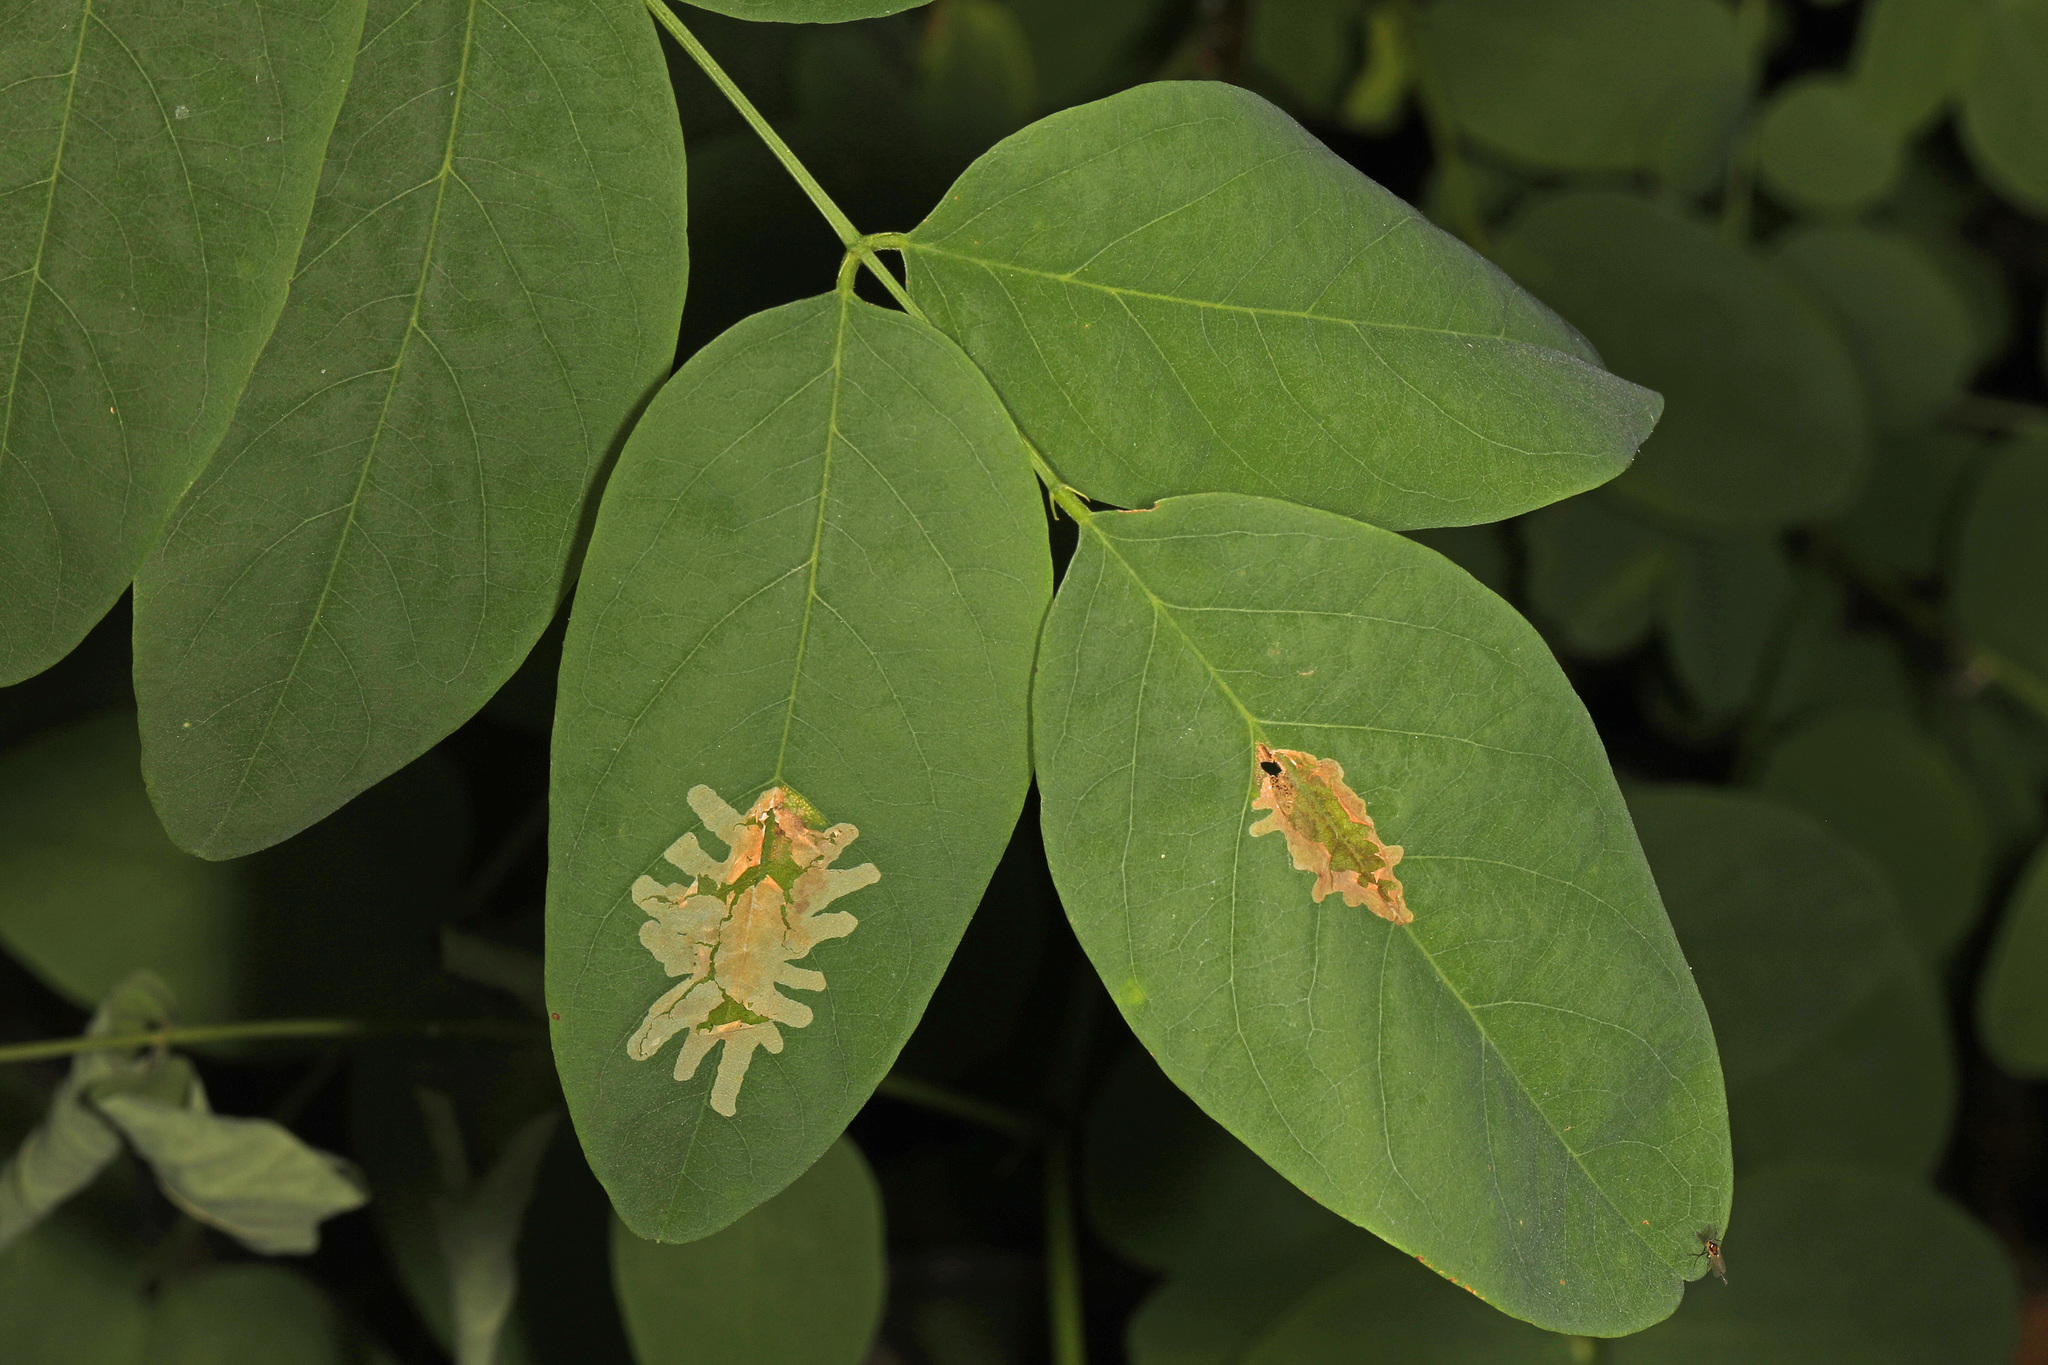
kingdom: Animalia
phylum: Arthropoda
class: Insecta
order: Lepidoptera
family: Gracillariidae
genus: Parectopa
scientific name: Parectopa robiniella
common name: Locust digitate leafminer
